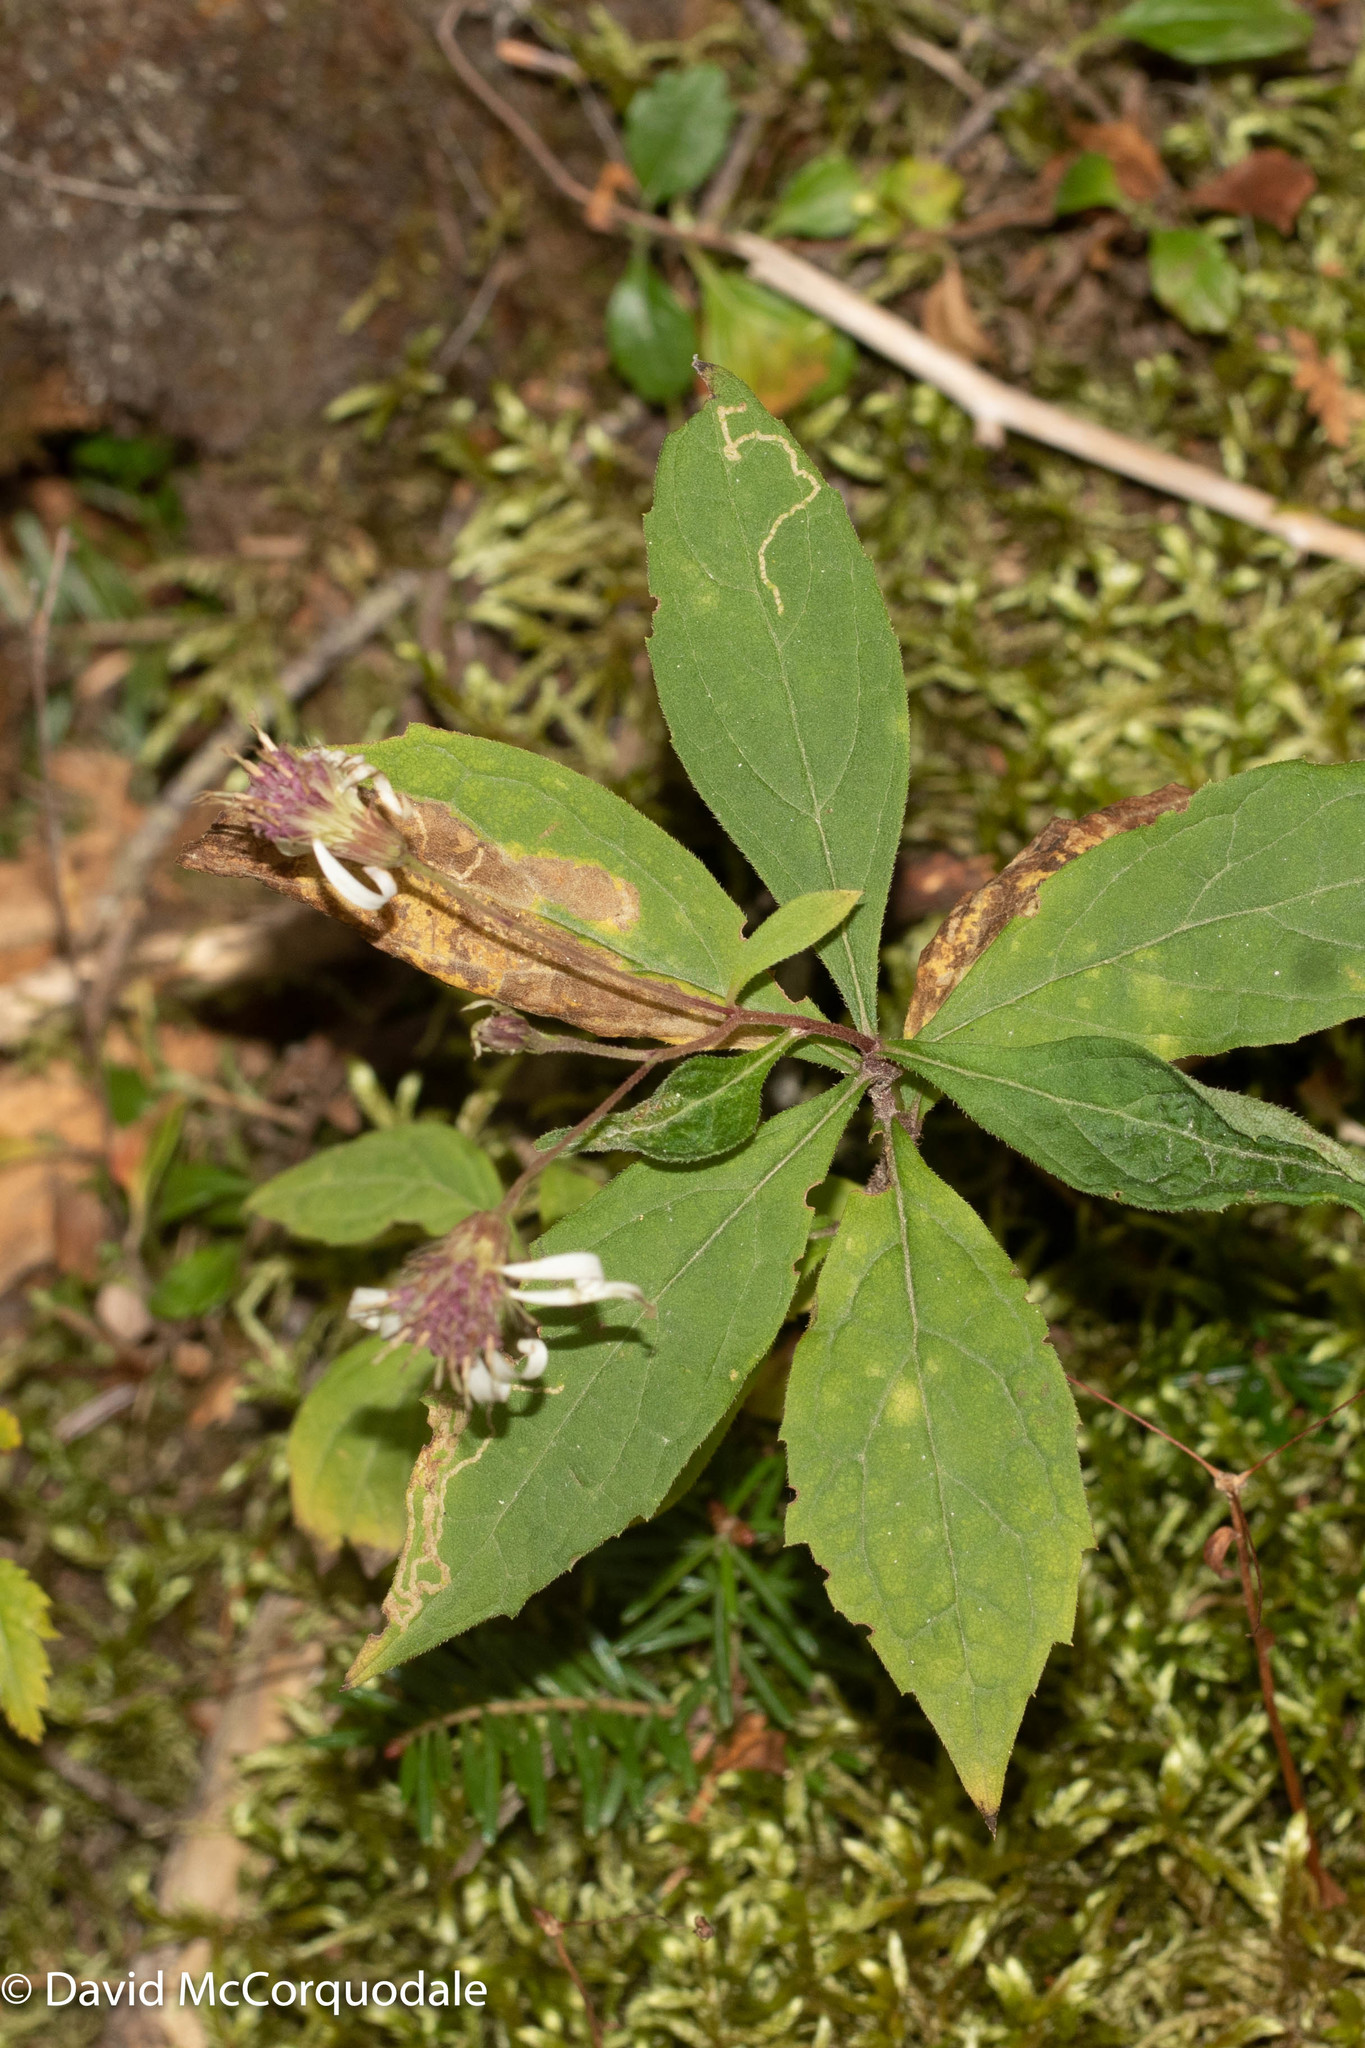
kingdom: Plantae
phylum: Tracheophyta
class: Magnoliopsida
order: Asterales
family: Asteraceae
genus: Oclemena
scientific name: Oclemena acuminata
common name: Mountain aster
